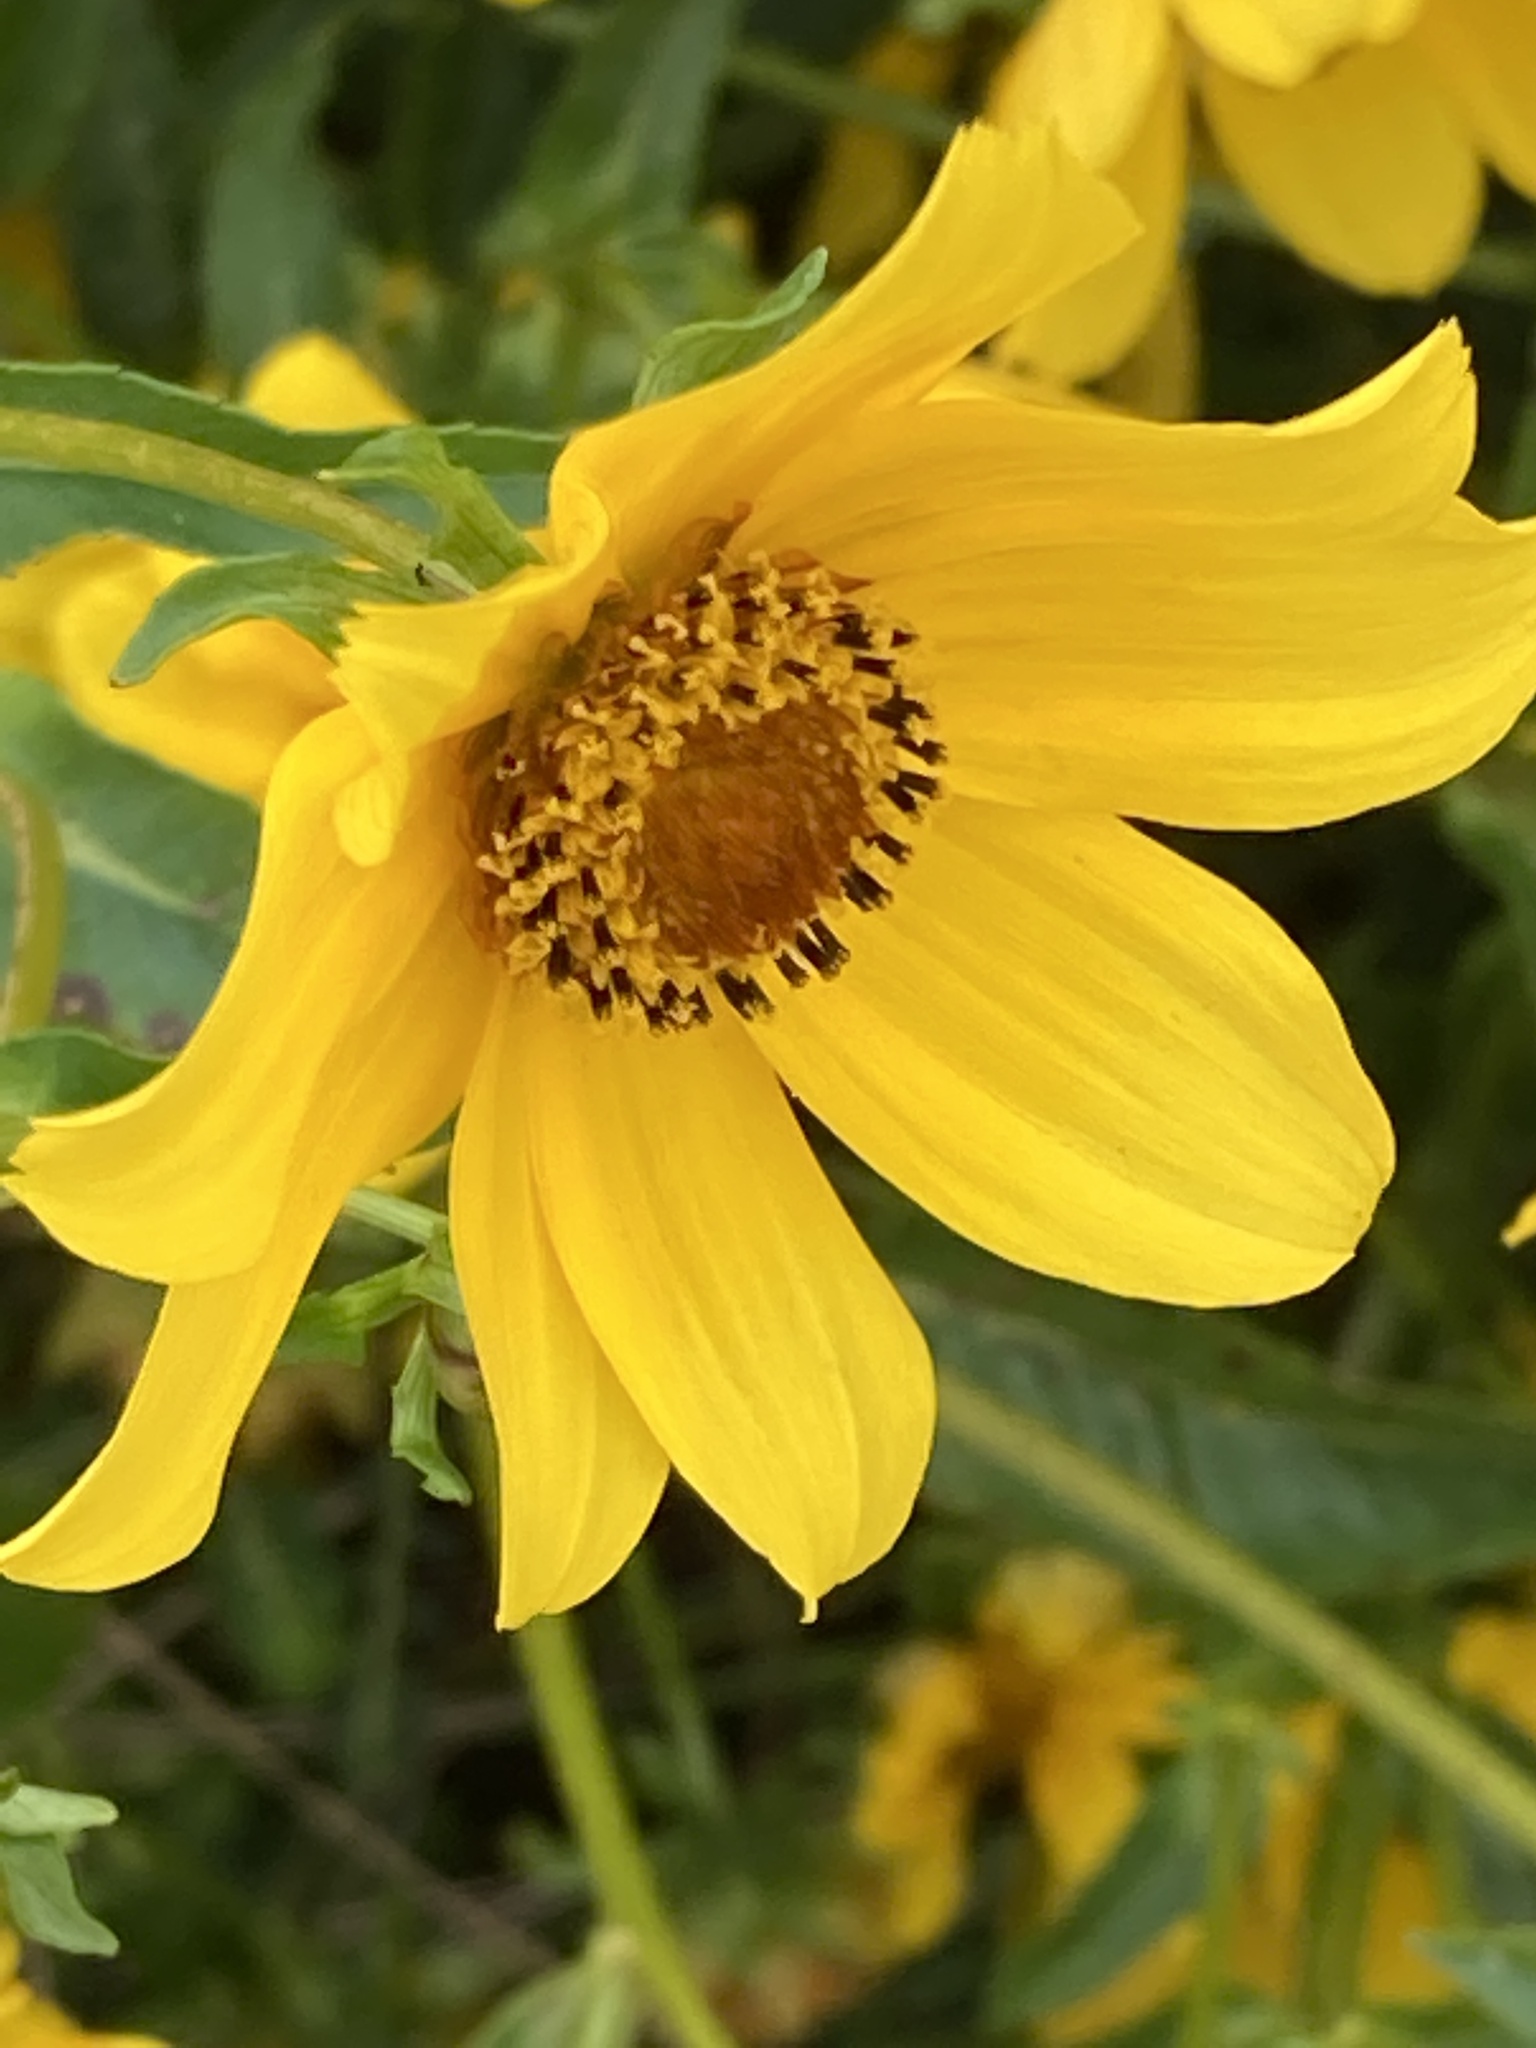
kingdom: Plantae
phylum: Tracheophyta
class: Magnoliopsida
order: Asterales
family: Asteraceae
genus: Bidens
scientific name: Bidens laevis
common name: Larger bur-marigold
